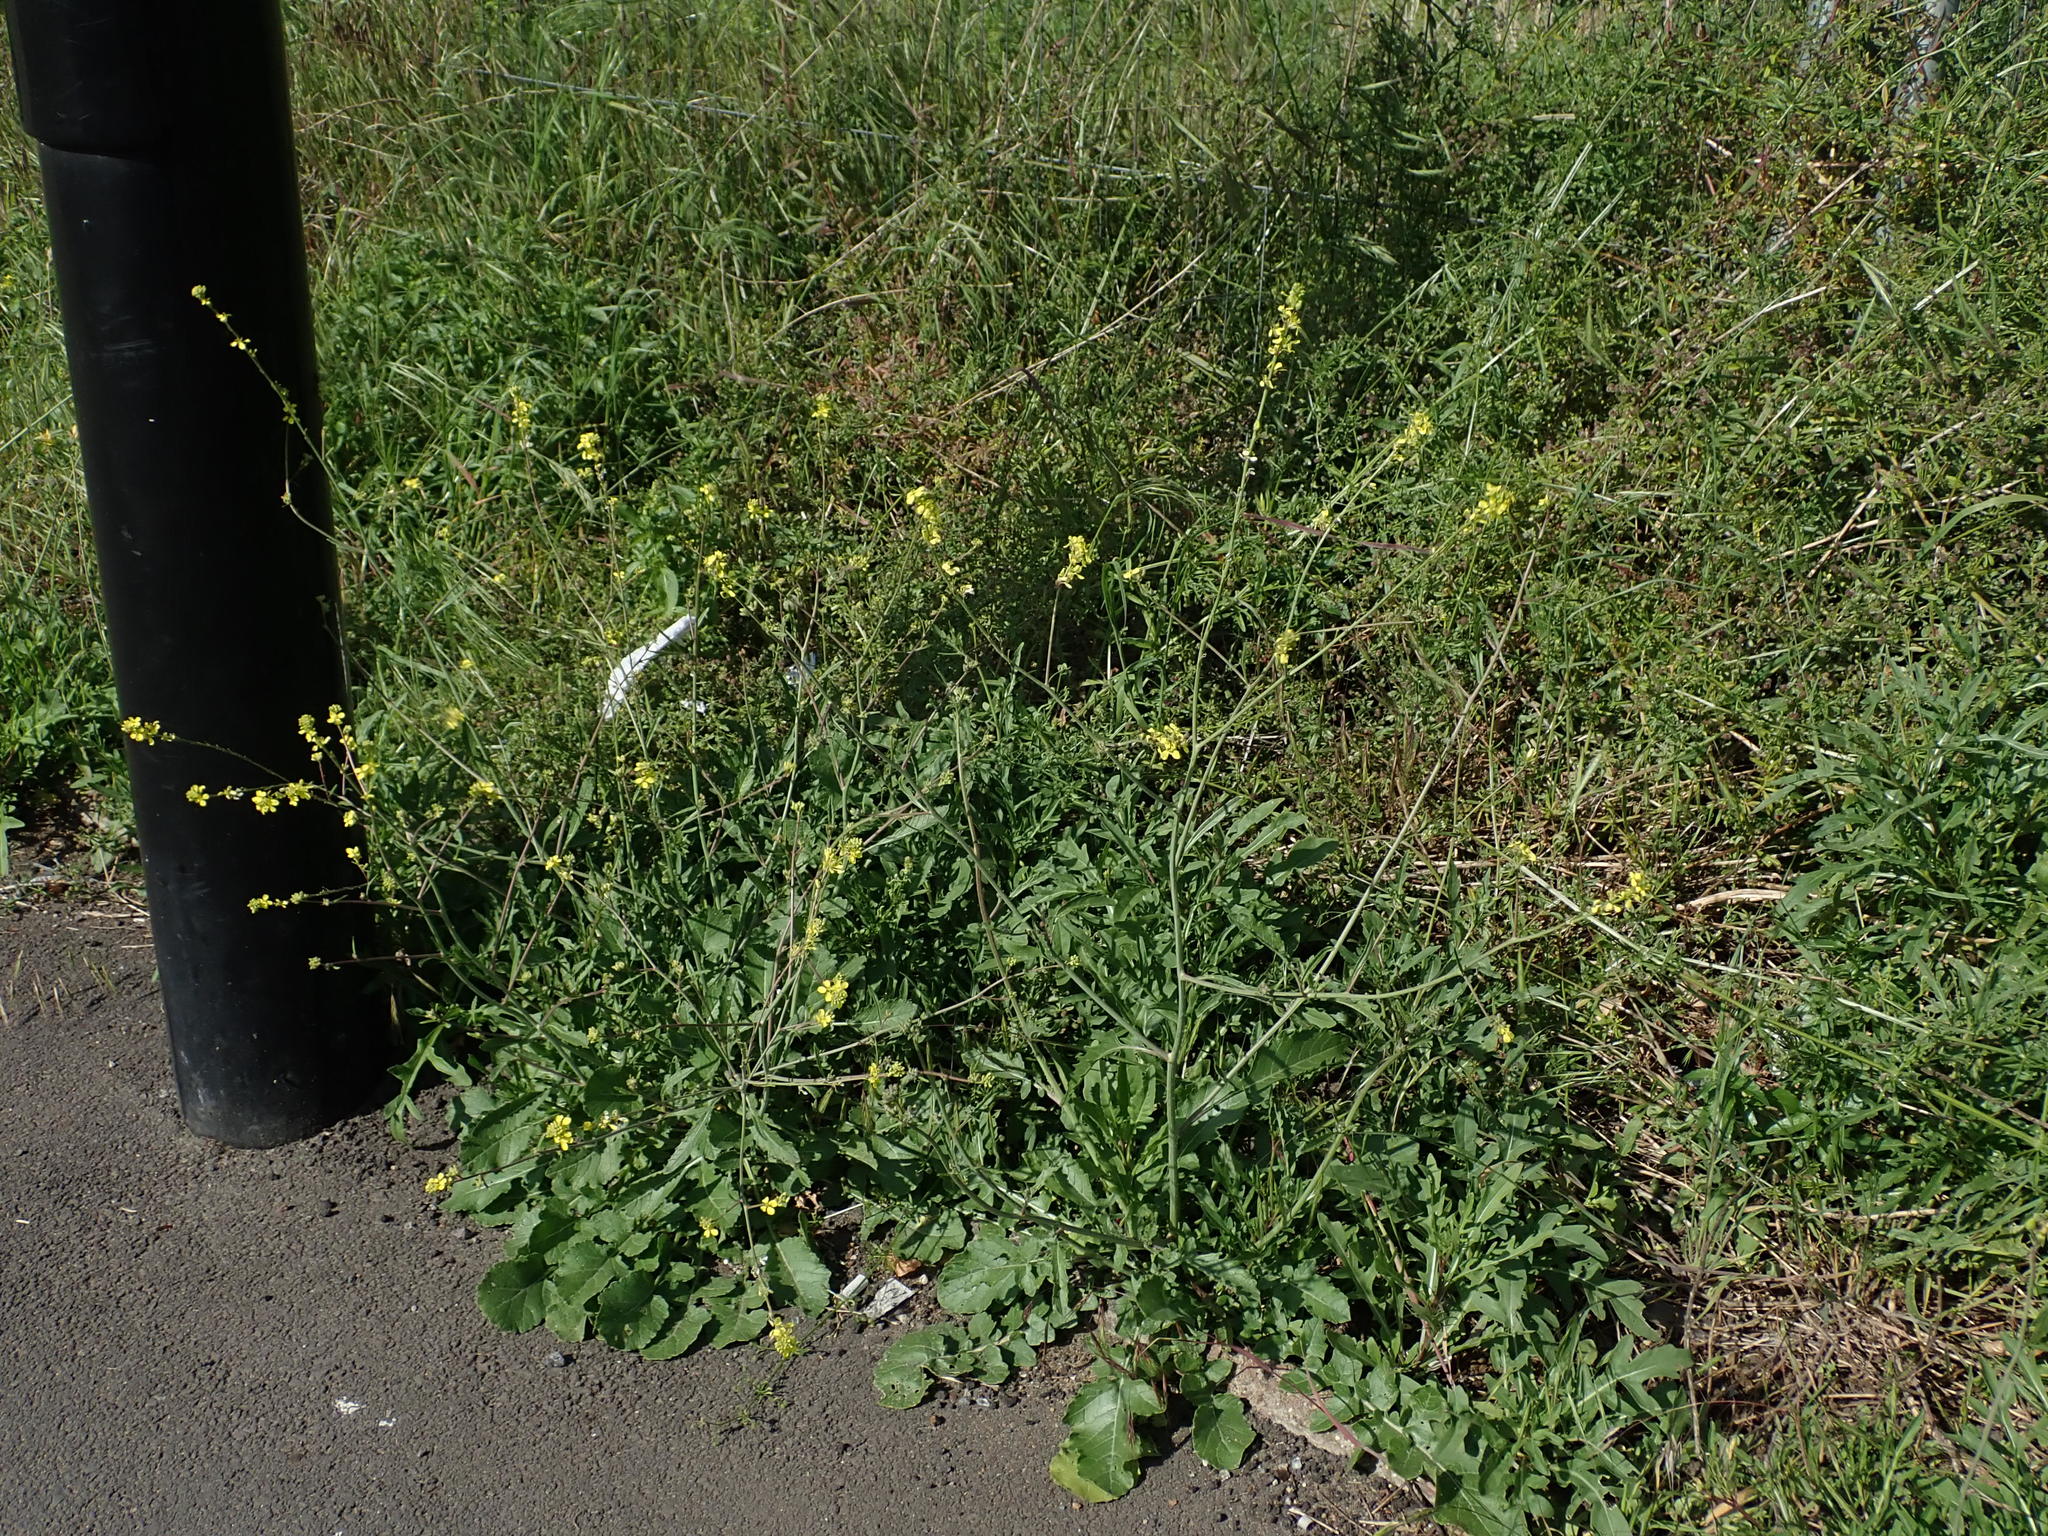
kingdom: Plantae
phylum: Tracheophyta
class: Magnoliopsida
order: Brassicales
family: Brassicaceae
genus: Hirschfeldia
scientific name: Hirschfeldia incana
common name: Hoary mustard
